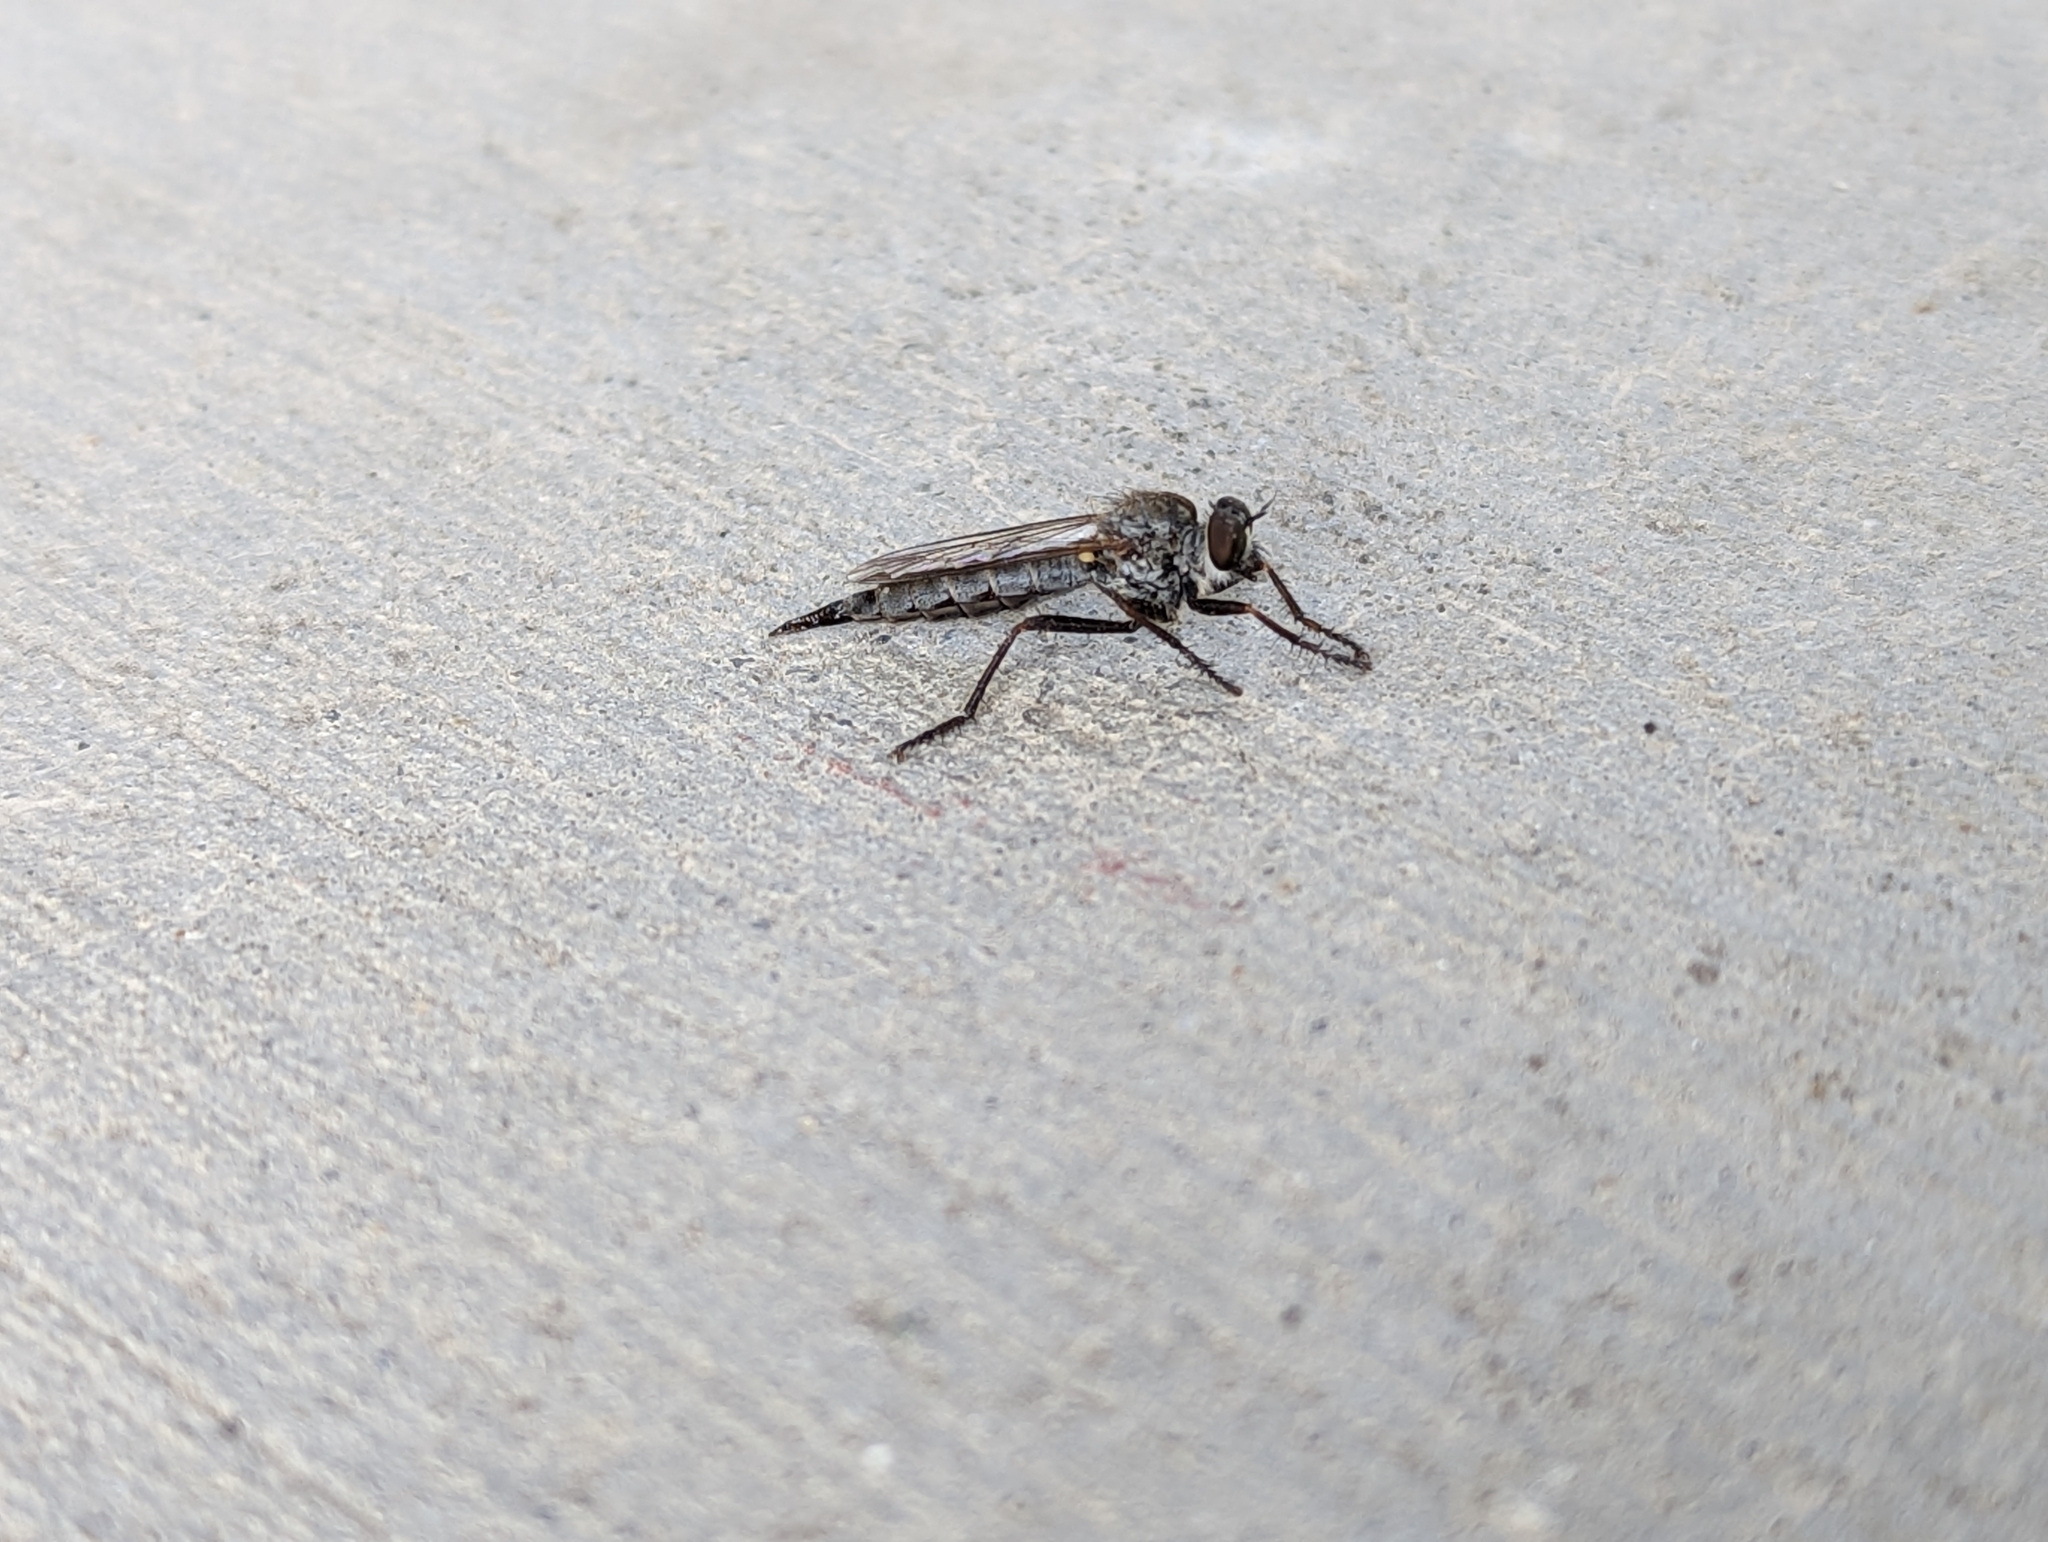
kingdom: Animalia
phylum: Arthropoda
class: Insecta
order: Diptera
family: Asilidae
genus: Neomochtherus
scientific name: Neomochtherus willistoni
